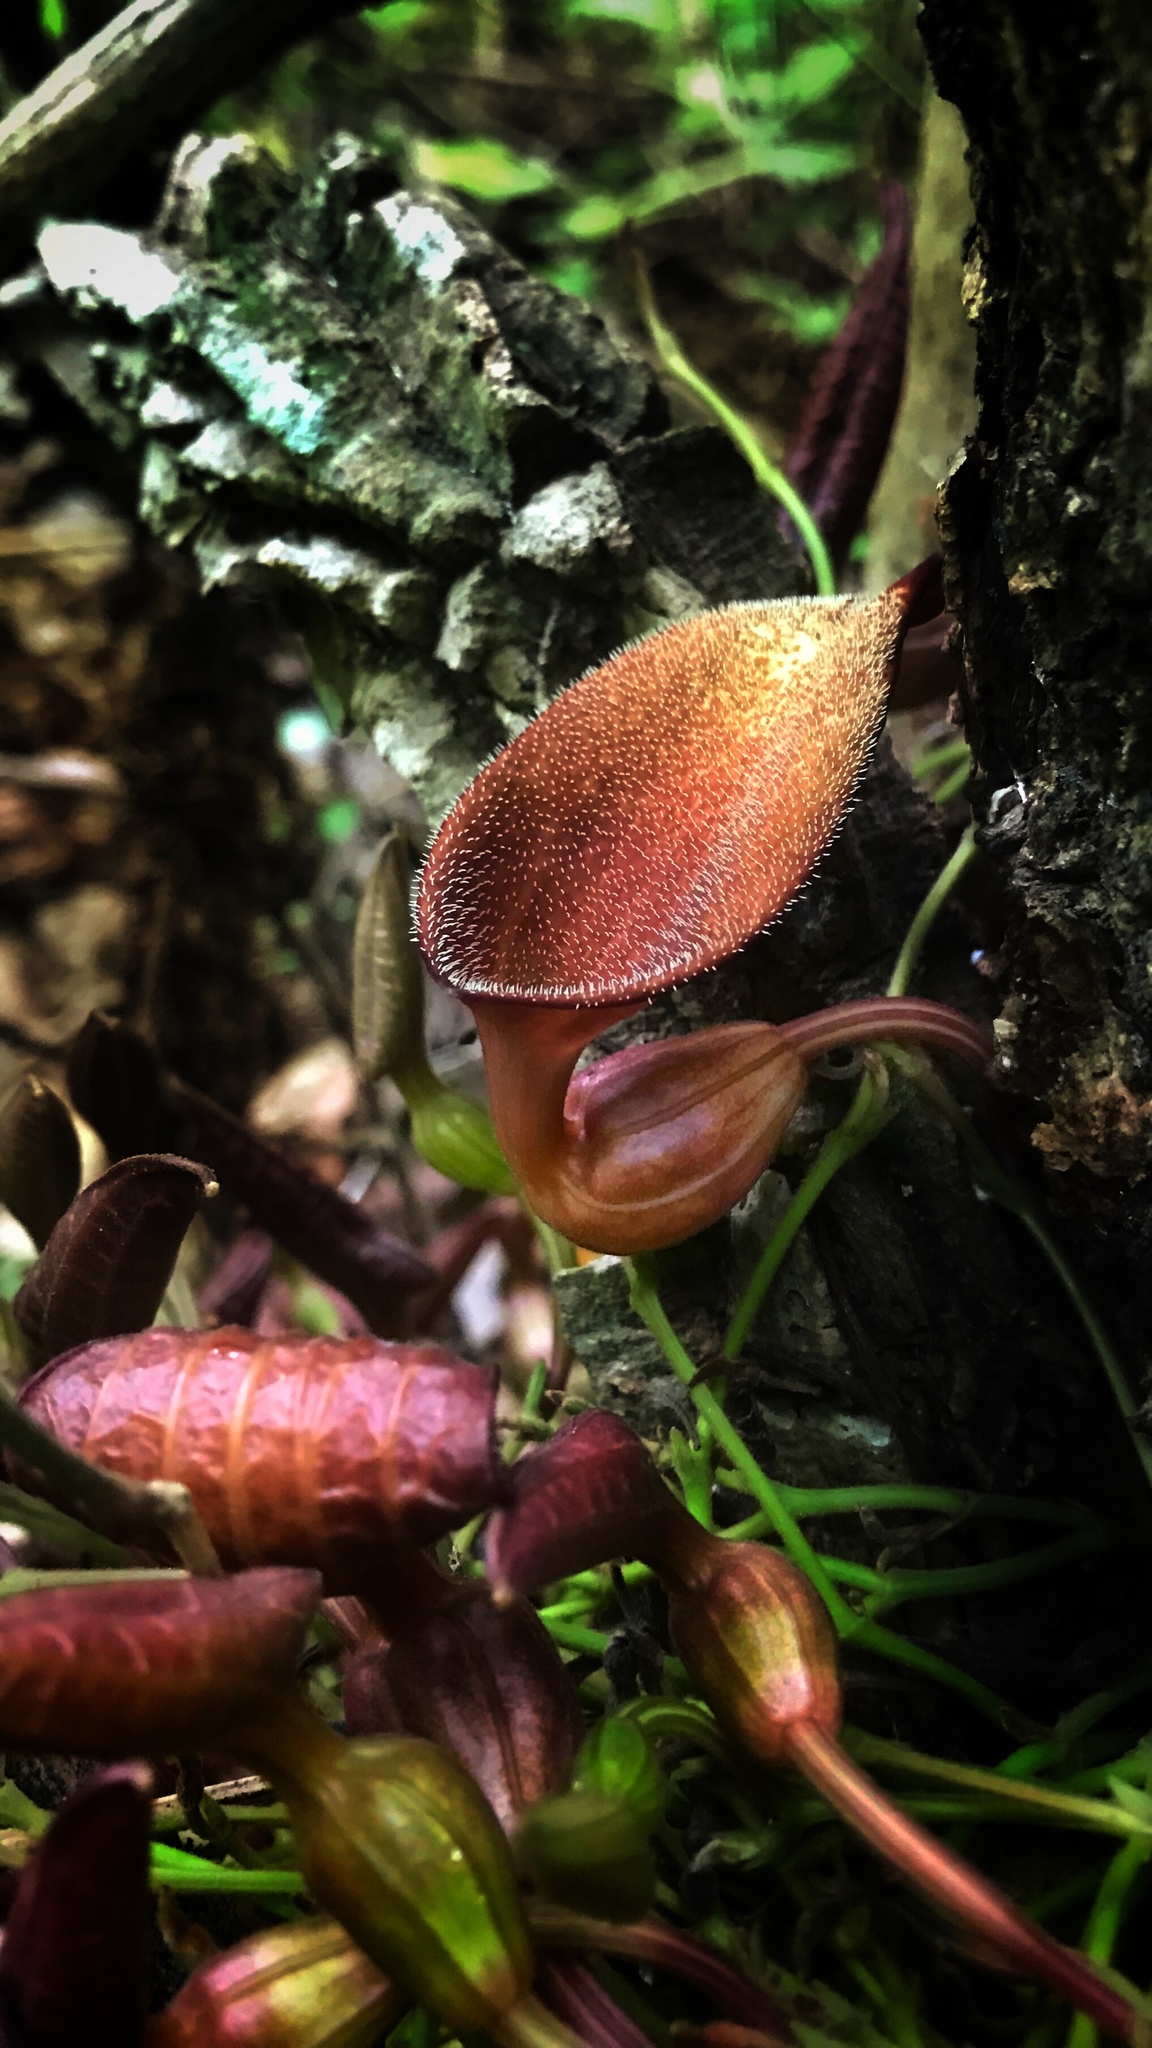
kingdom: Plantae
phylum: Tracheophyta
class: Magnoliopsida
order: Piperales
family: Aristolochiaceae
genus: Aristolochia
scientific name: Aristolochia maxima
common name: Florida dutchman's pipe
